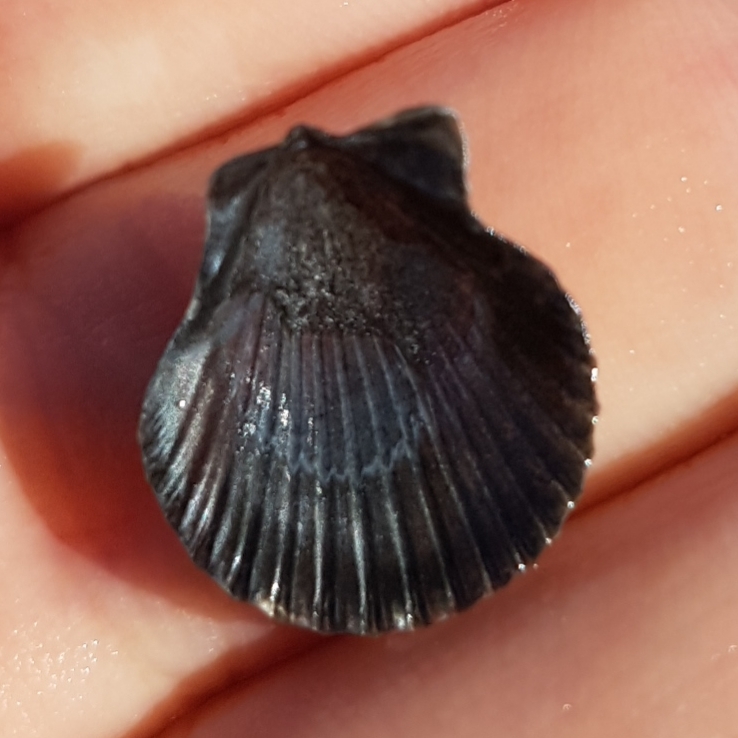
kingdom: Animalia
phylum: Mollusca
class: Bivalvia
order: Pectinida
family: Pectinidae
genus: Aequipecten
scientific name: Aequipecten opercularis
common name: Queen scallop
